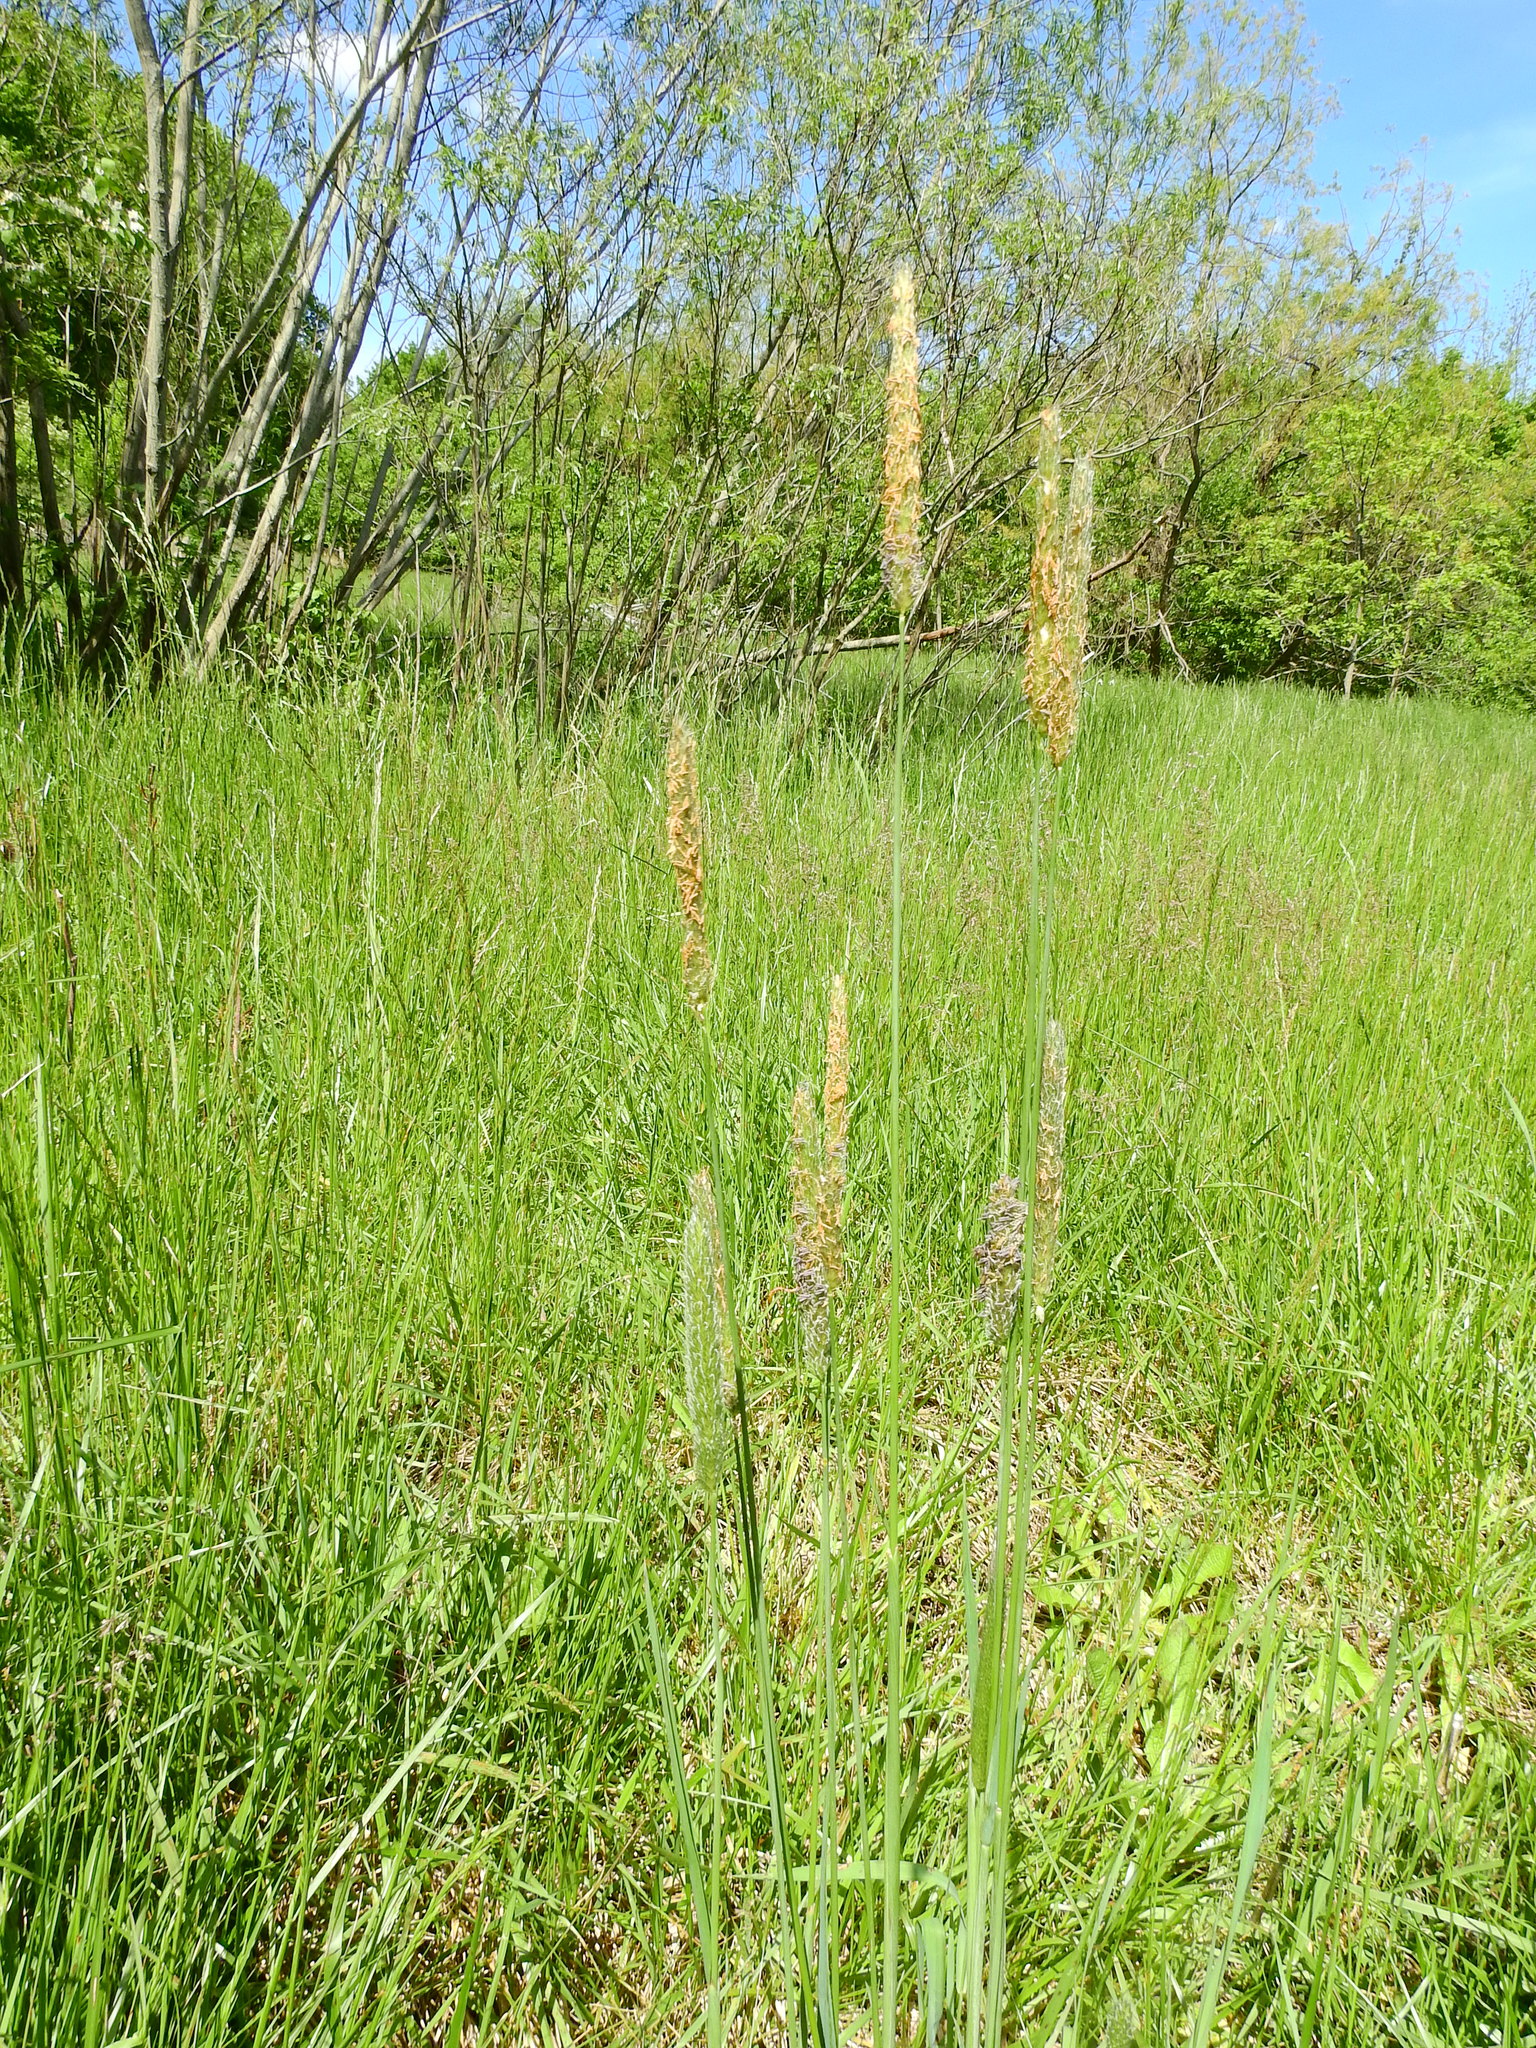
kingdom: Plantae
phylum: Tracheophyta
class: Liliopsida
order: Poales
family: Poaceae
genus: Phleum
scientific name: Phleum pratense
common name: Timothy grass
